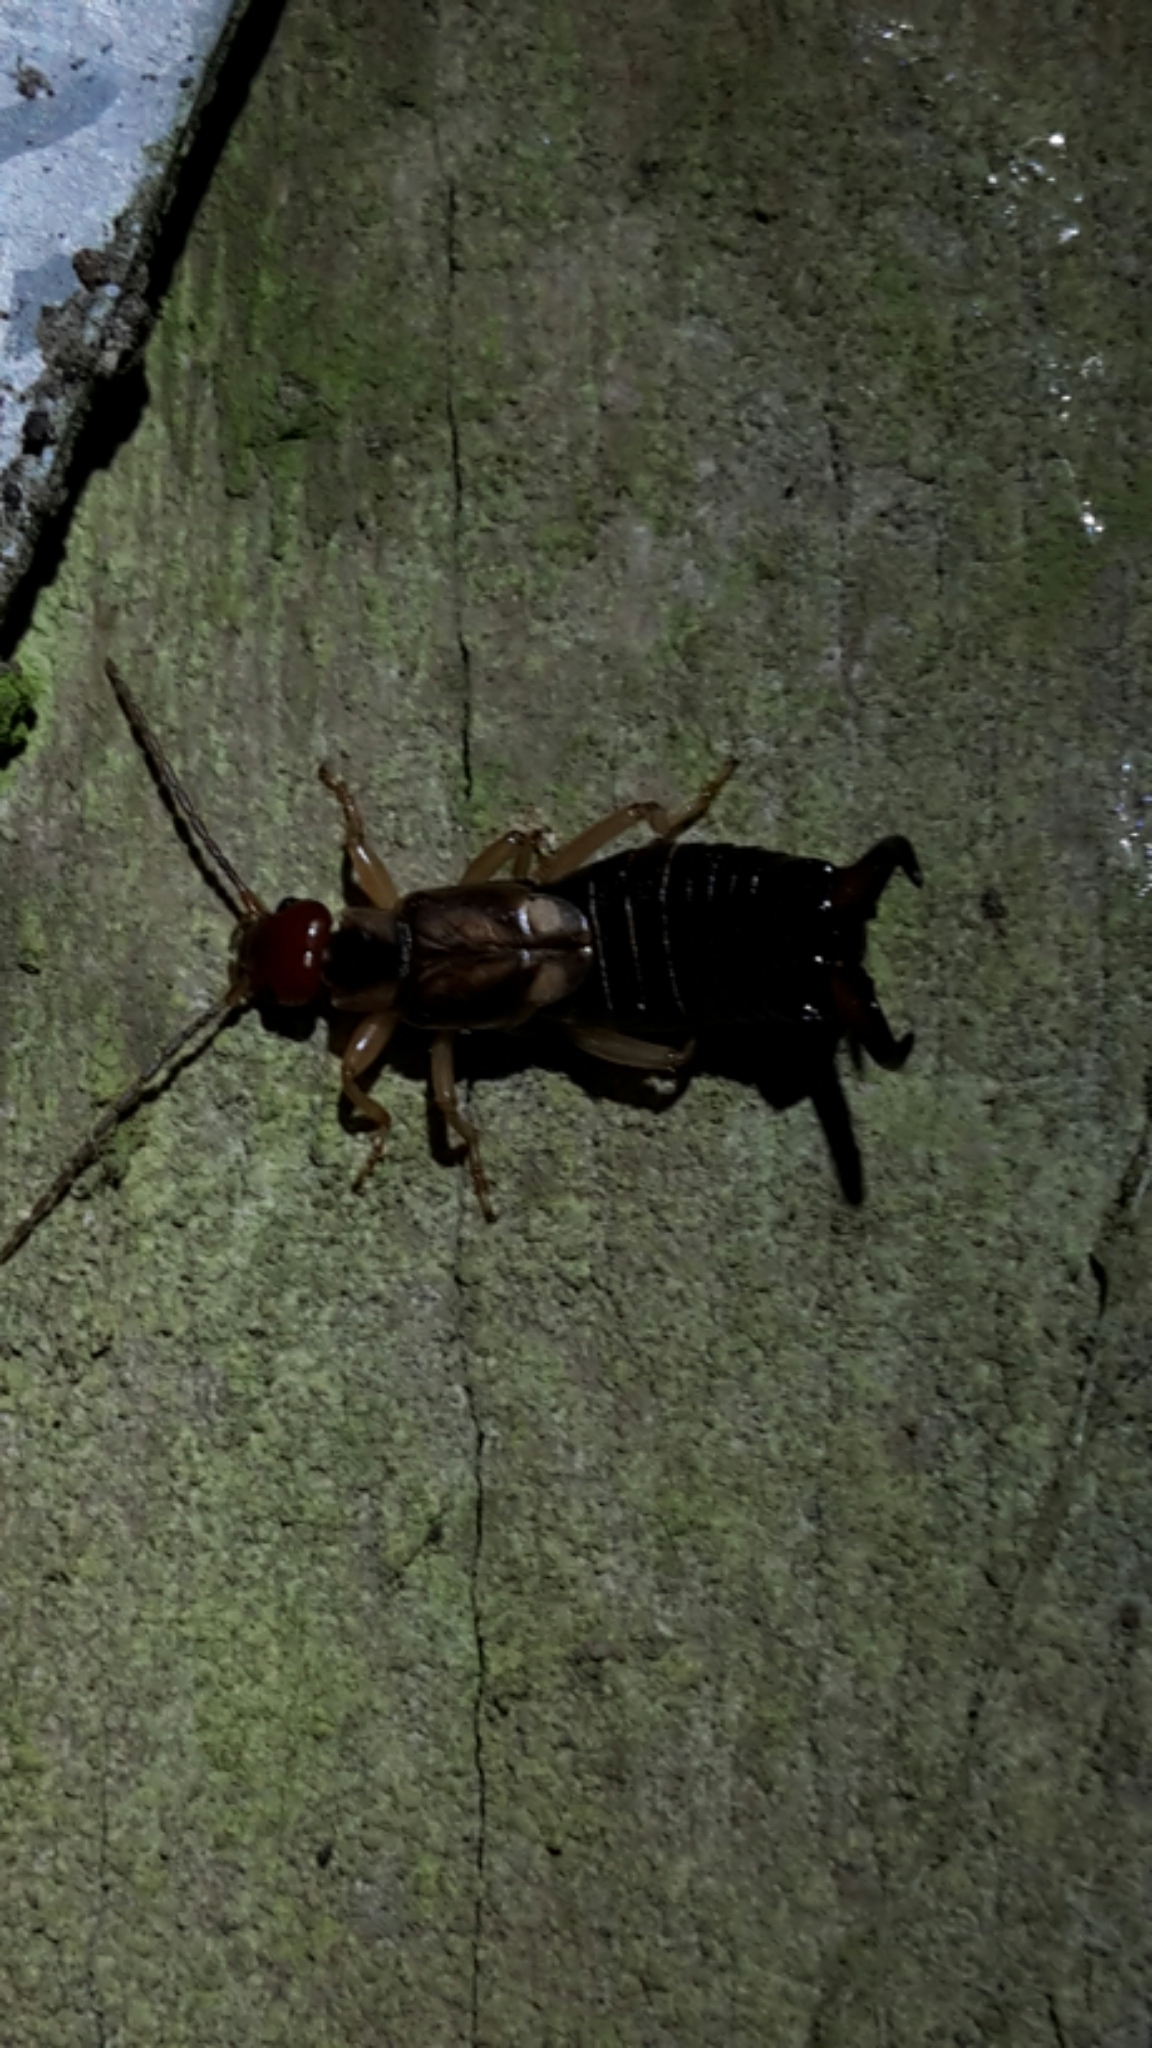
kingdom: Animalia
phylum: Arthropoda
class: Insecta
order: Dermaptera
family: Forficulidae
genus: Forficula
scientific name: Forficula
